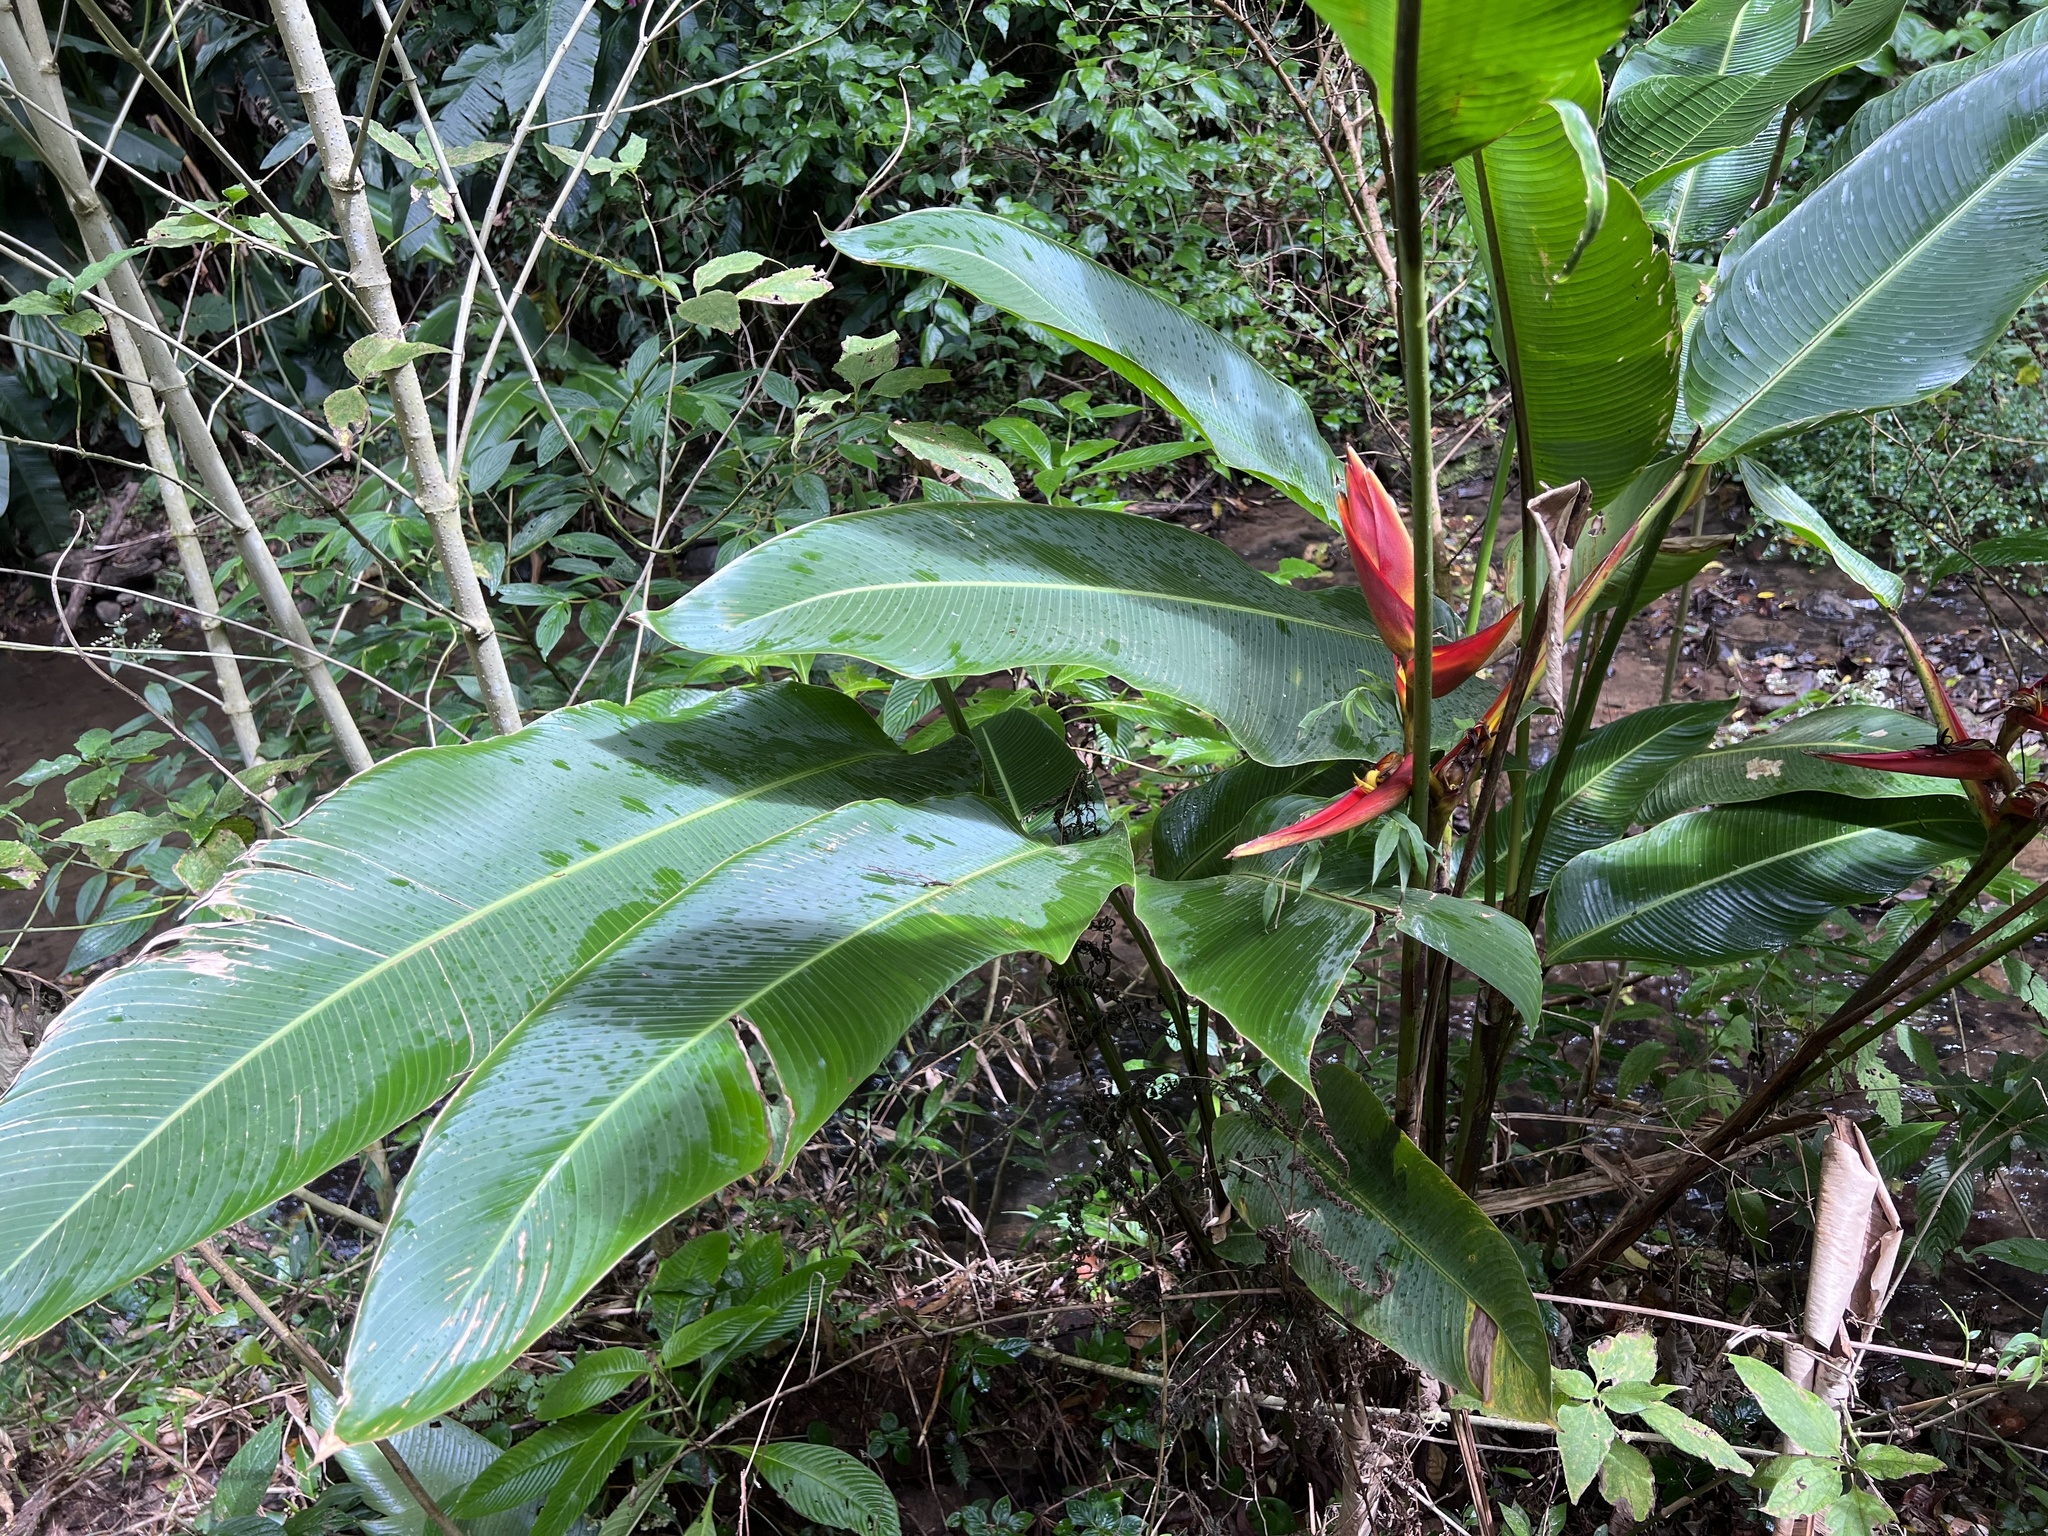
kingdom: Plantae
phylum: Tracheophyta
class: Liliopsida
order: Zingiberales
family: Heliconiaceae
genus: Heliconia
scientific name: Heliconia tortuosa
